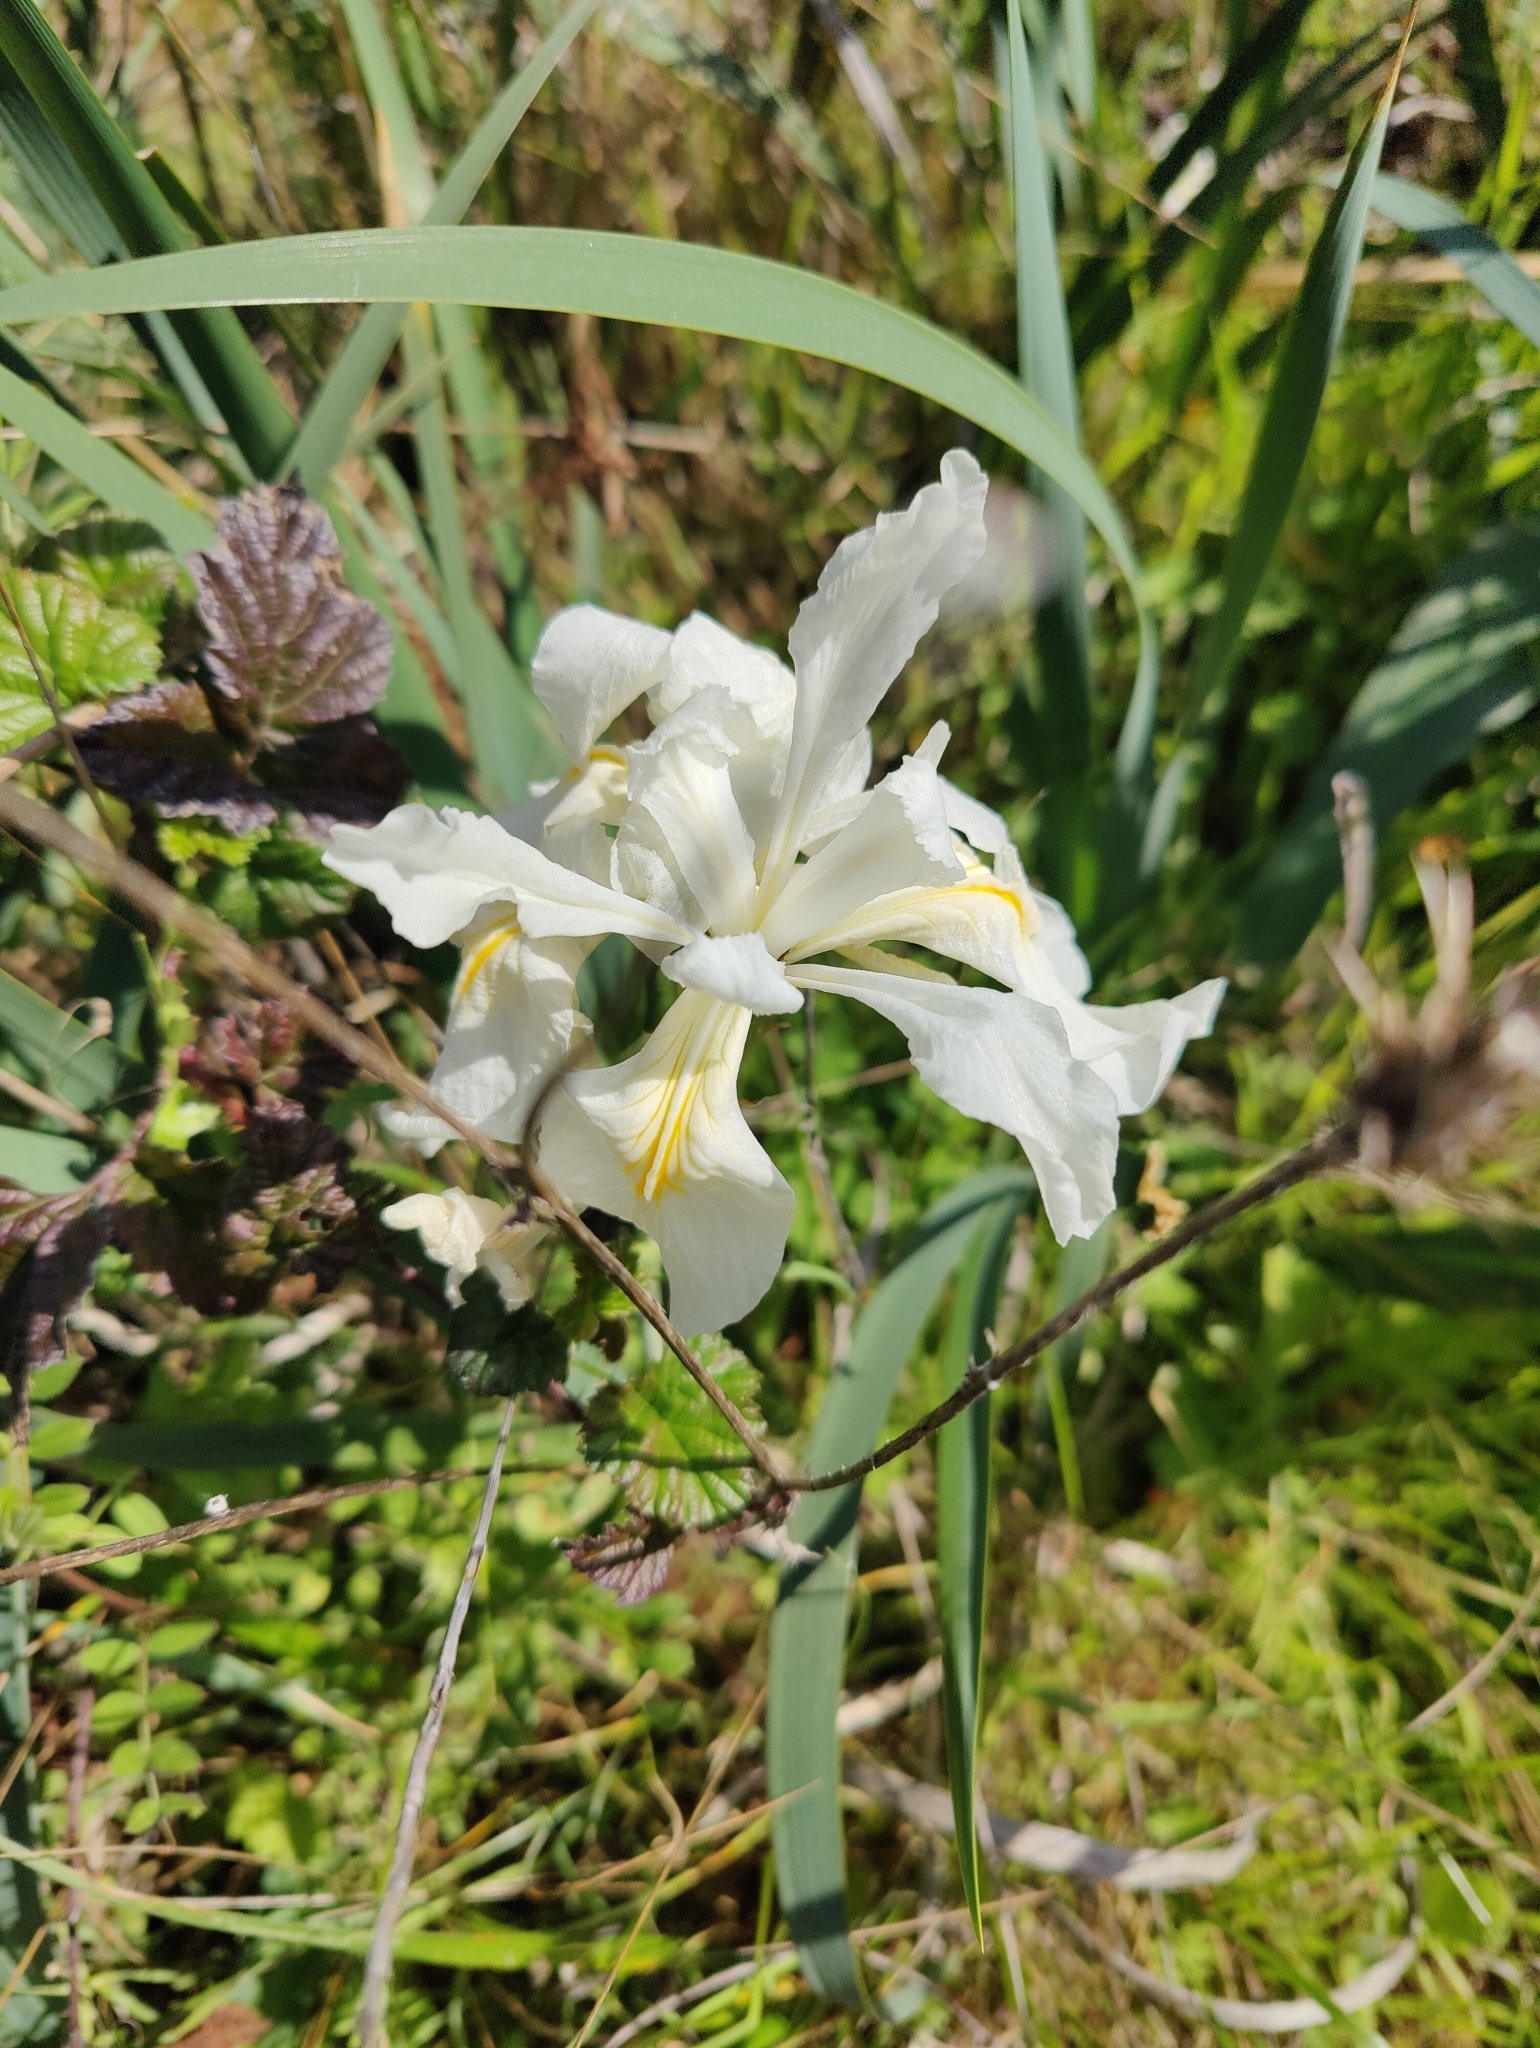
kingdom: Plantae
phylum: Tracheophyta
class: Liliopsida
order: Asparagales
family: Iridaceae
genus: Iris
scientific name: Iris longipetala
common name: Long-petal iris
